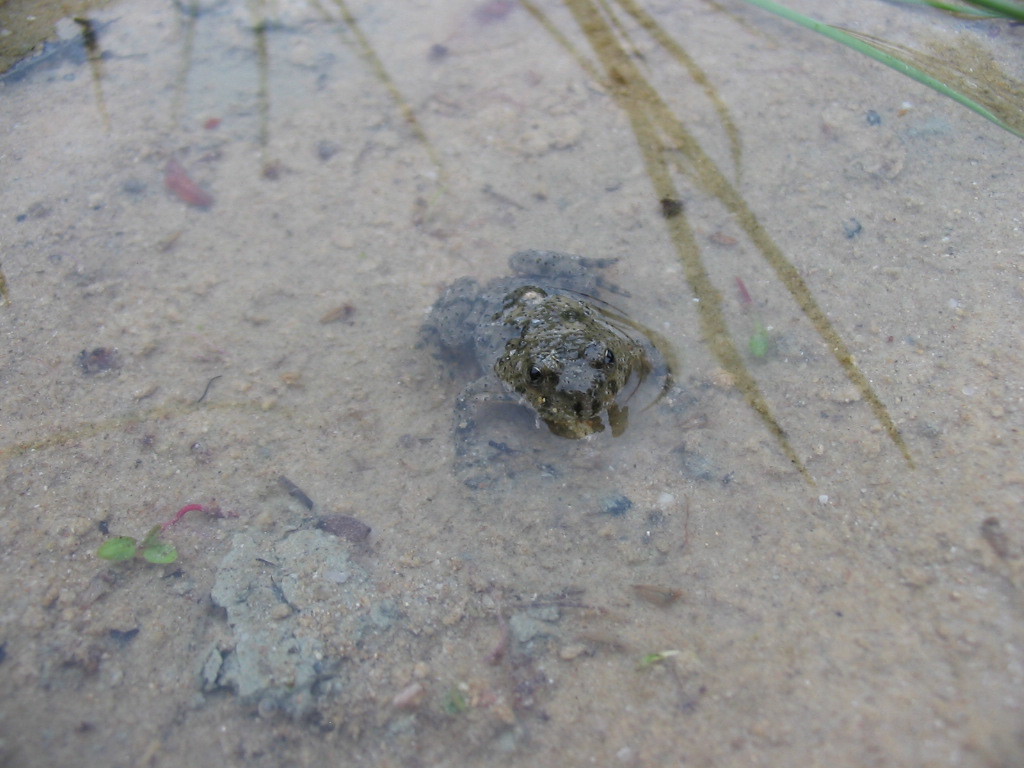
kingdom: Animalia
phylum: Chordata
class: Amphibia
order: Anura
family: Bombinatoridae
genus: Bombina
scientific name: Bombina variegata
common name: Yellow-bellied toad
